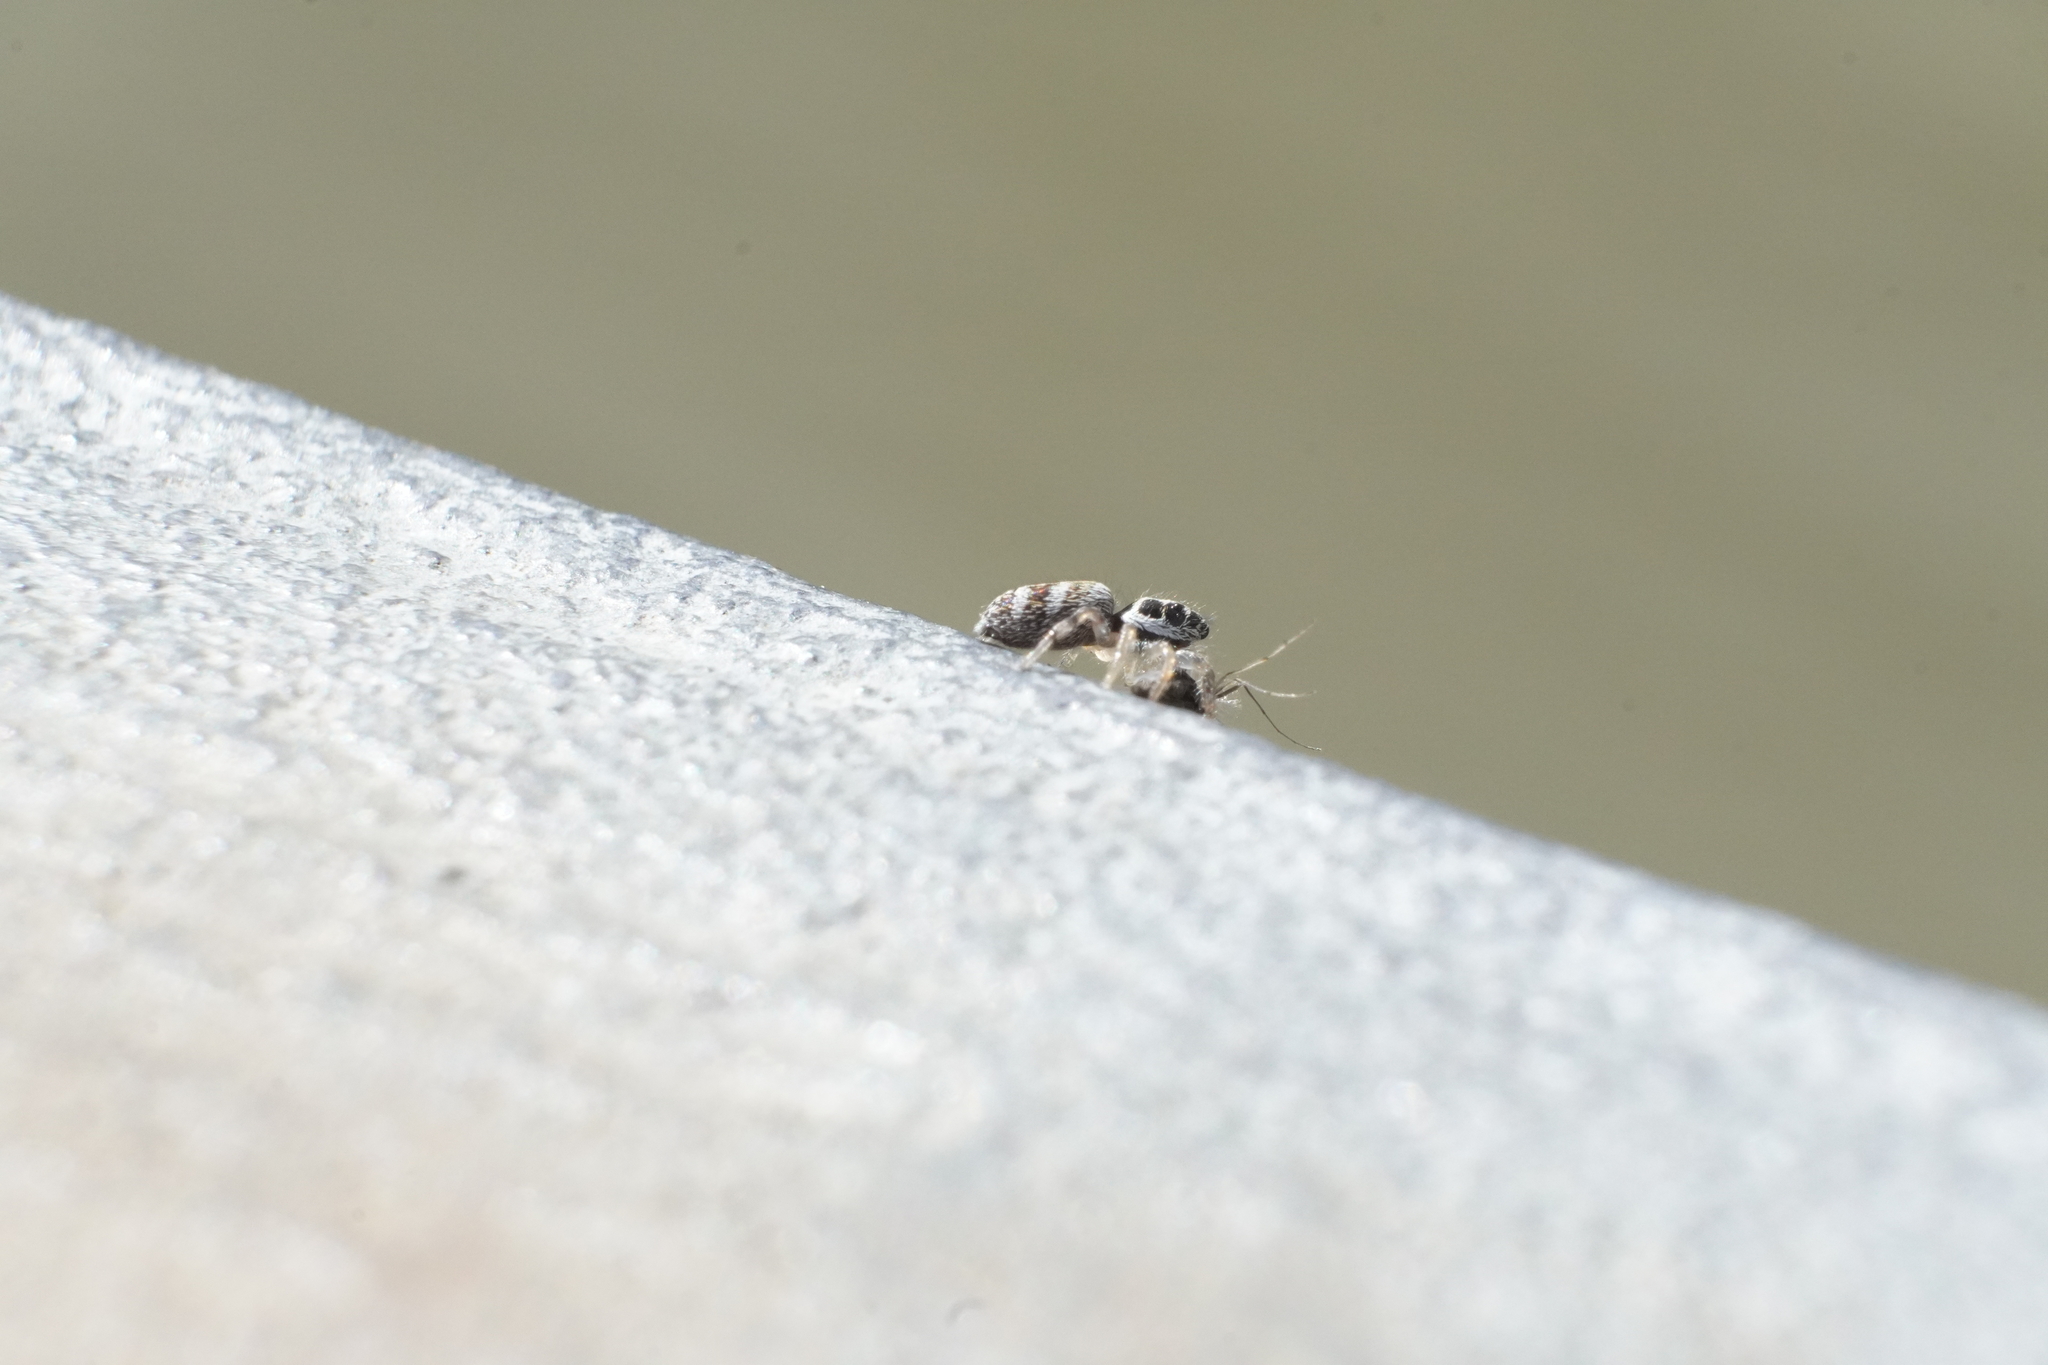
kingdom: Animalia
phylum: Arthropoda
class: Arachnida
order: Araneae
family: Salticidae
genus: Salticus
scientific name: Salticus scenicus
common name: Zebra jumper
